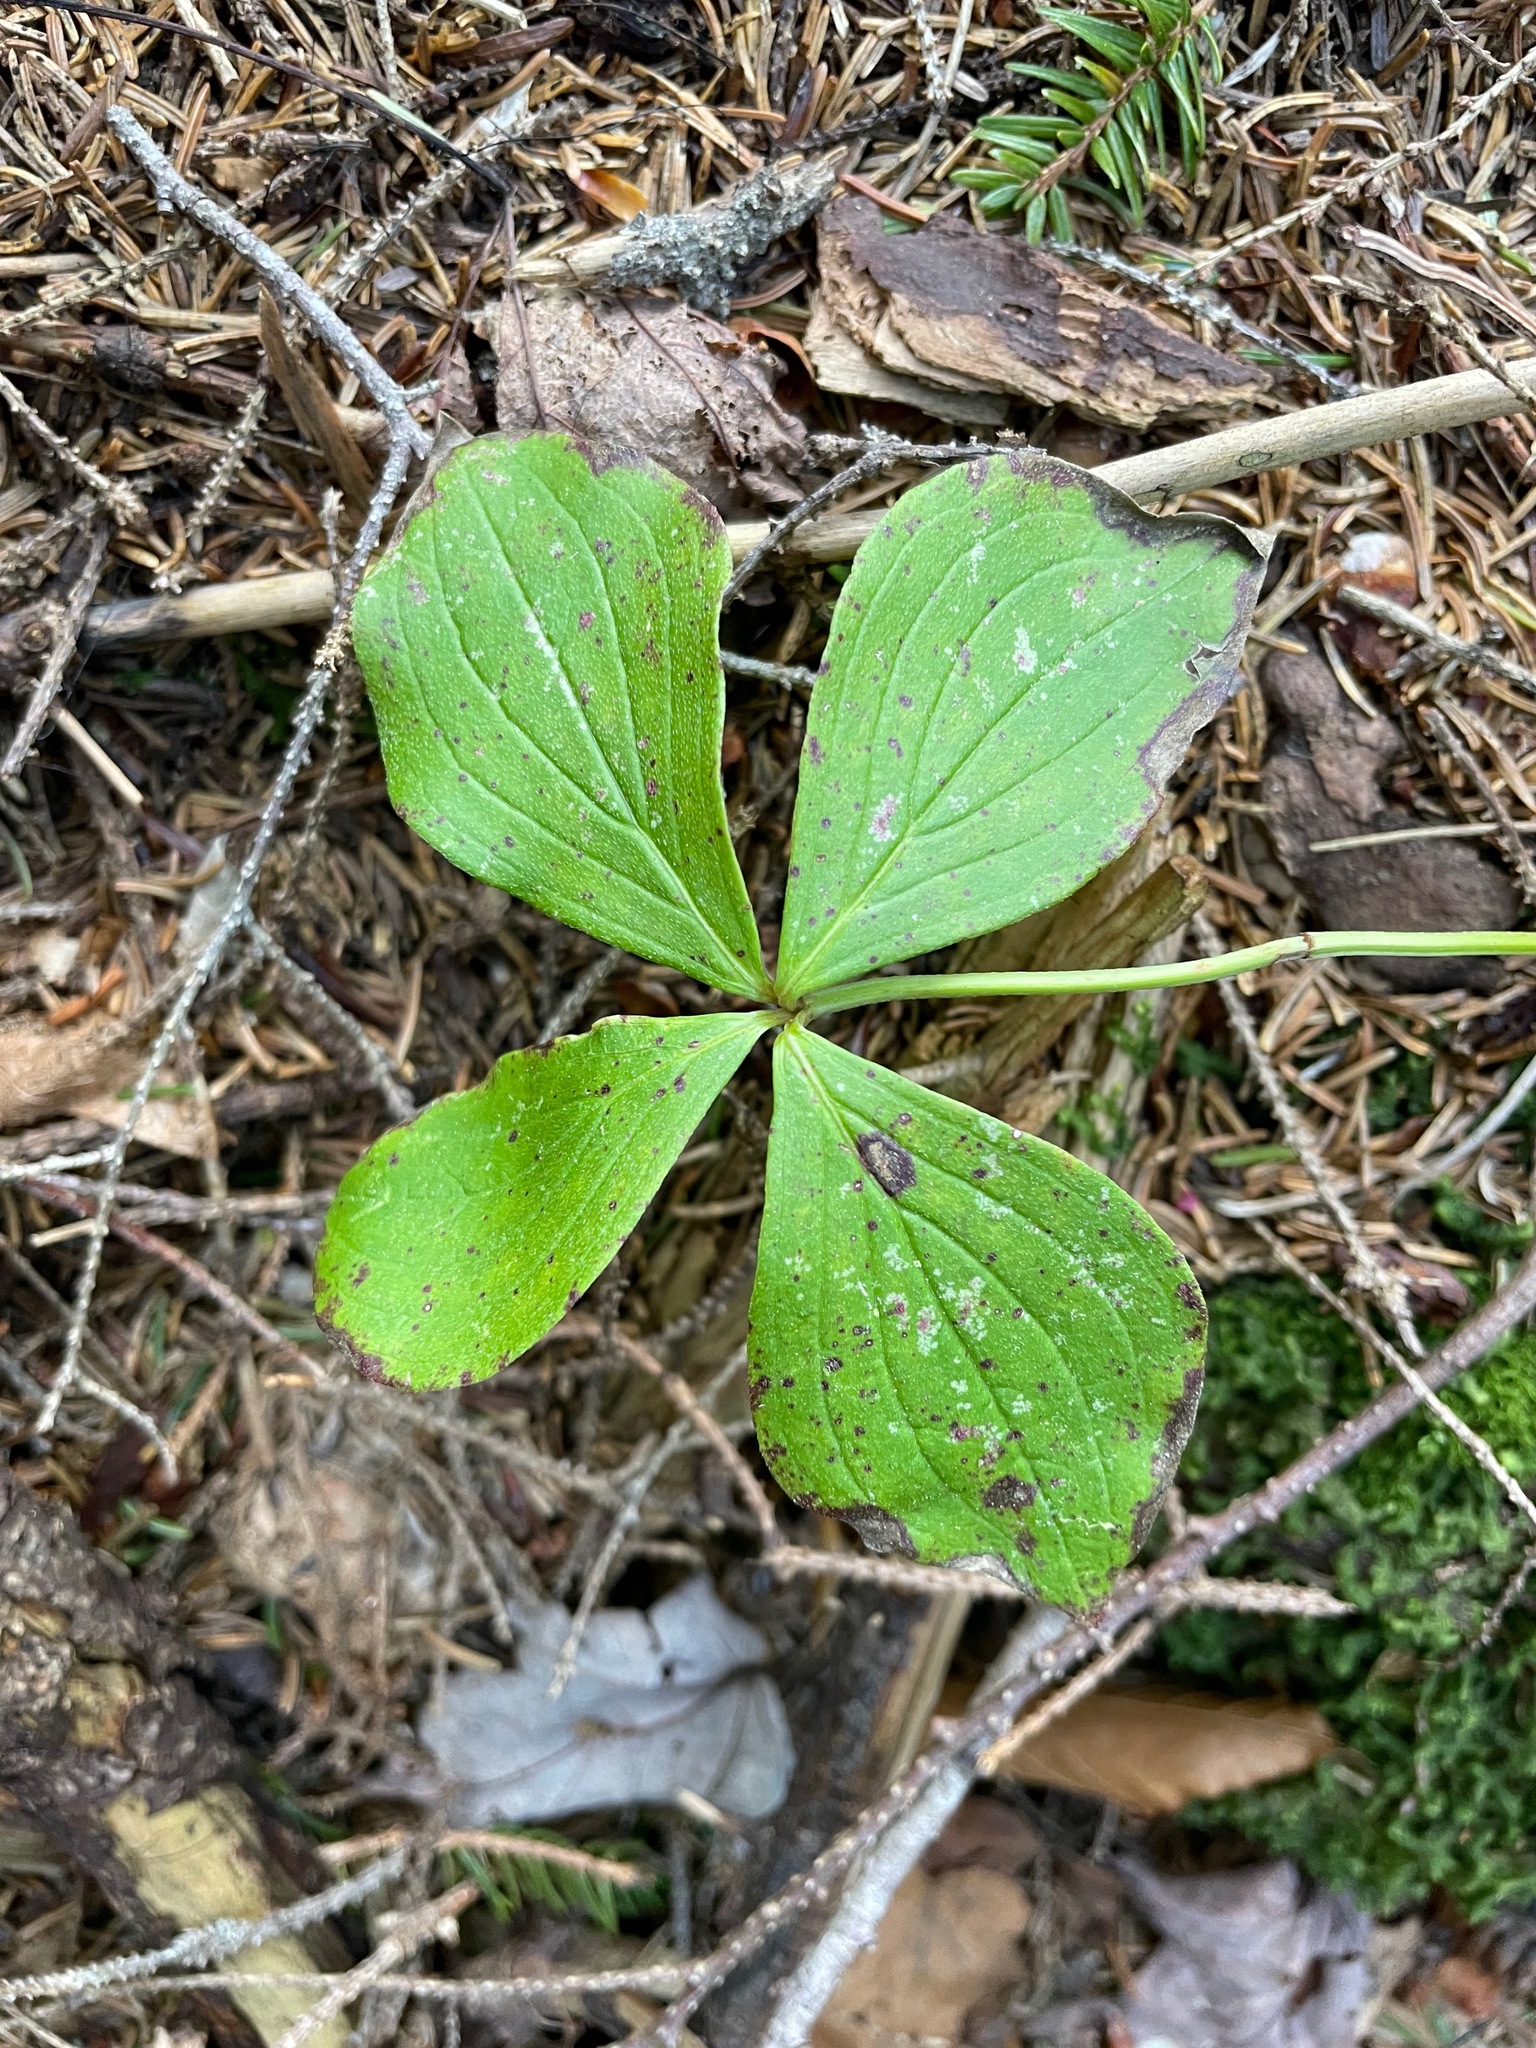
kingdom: Plantae
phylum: Tracheophyta
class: Magnoliopsida
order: Cornales
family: Cornaceae
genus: Cornus
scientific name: Cornus canadensis
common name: Creeping dogwood
